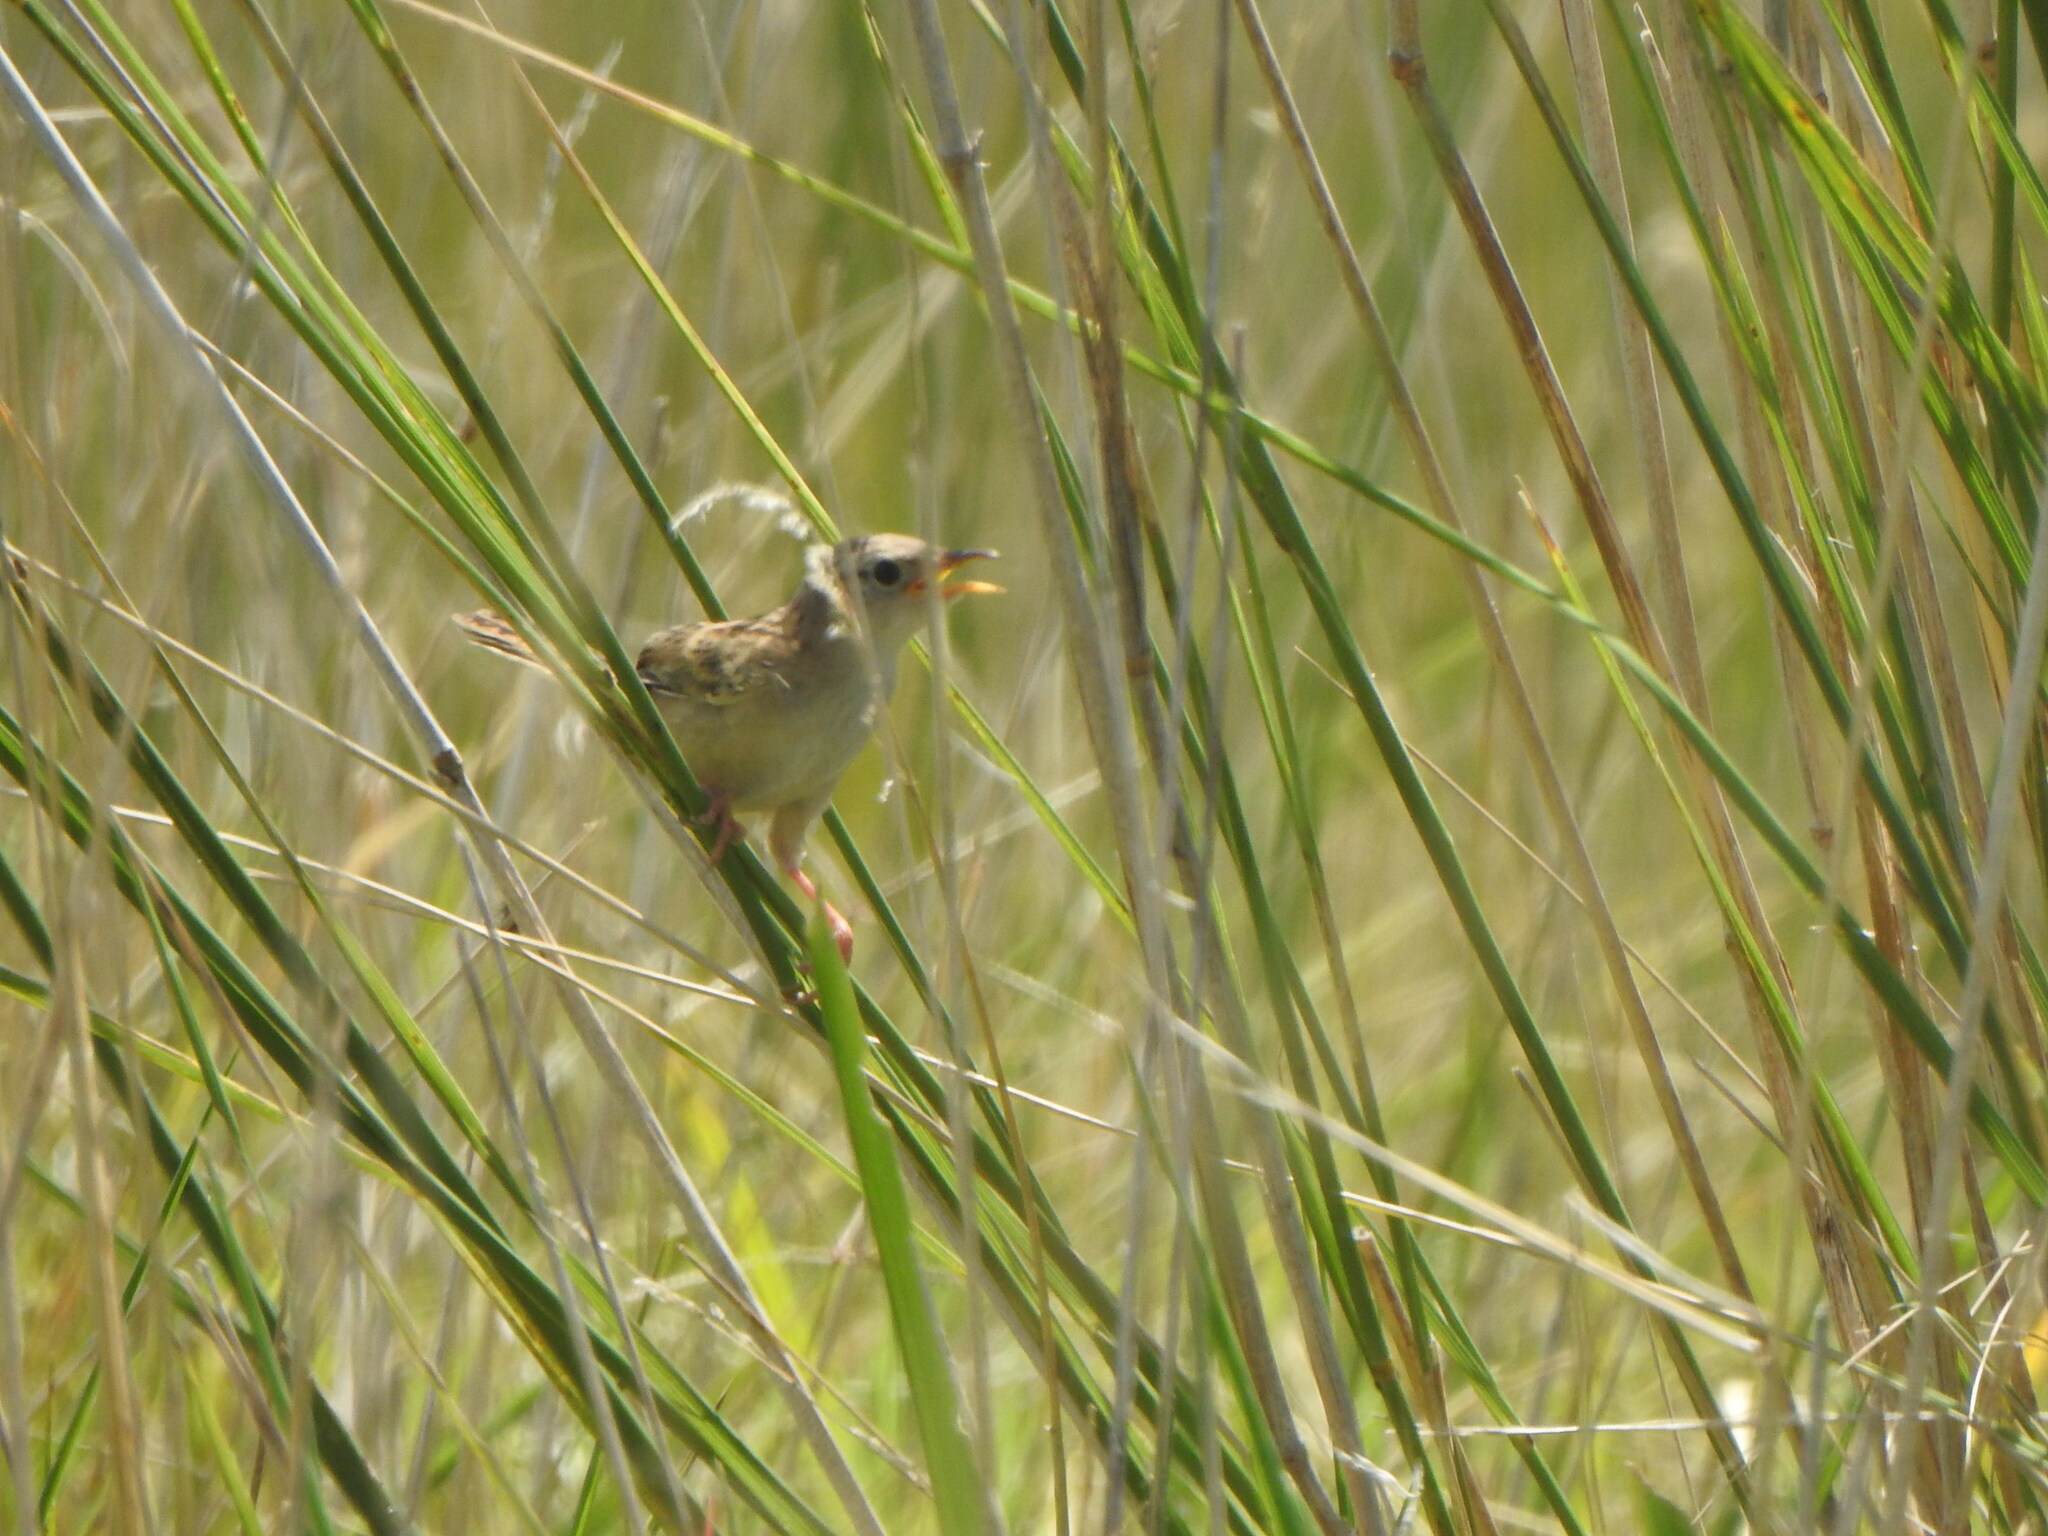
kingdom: Animalia
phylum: Chordata
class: Aves
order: Passeriformes
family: Troglodytidae
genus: Cistothorus
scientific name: Cistothorus platensis
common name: Sedge wren
